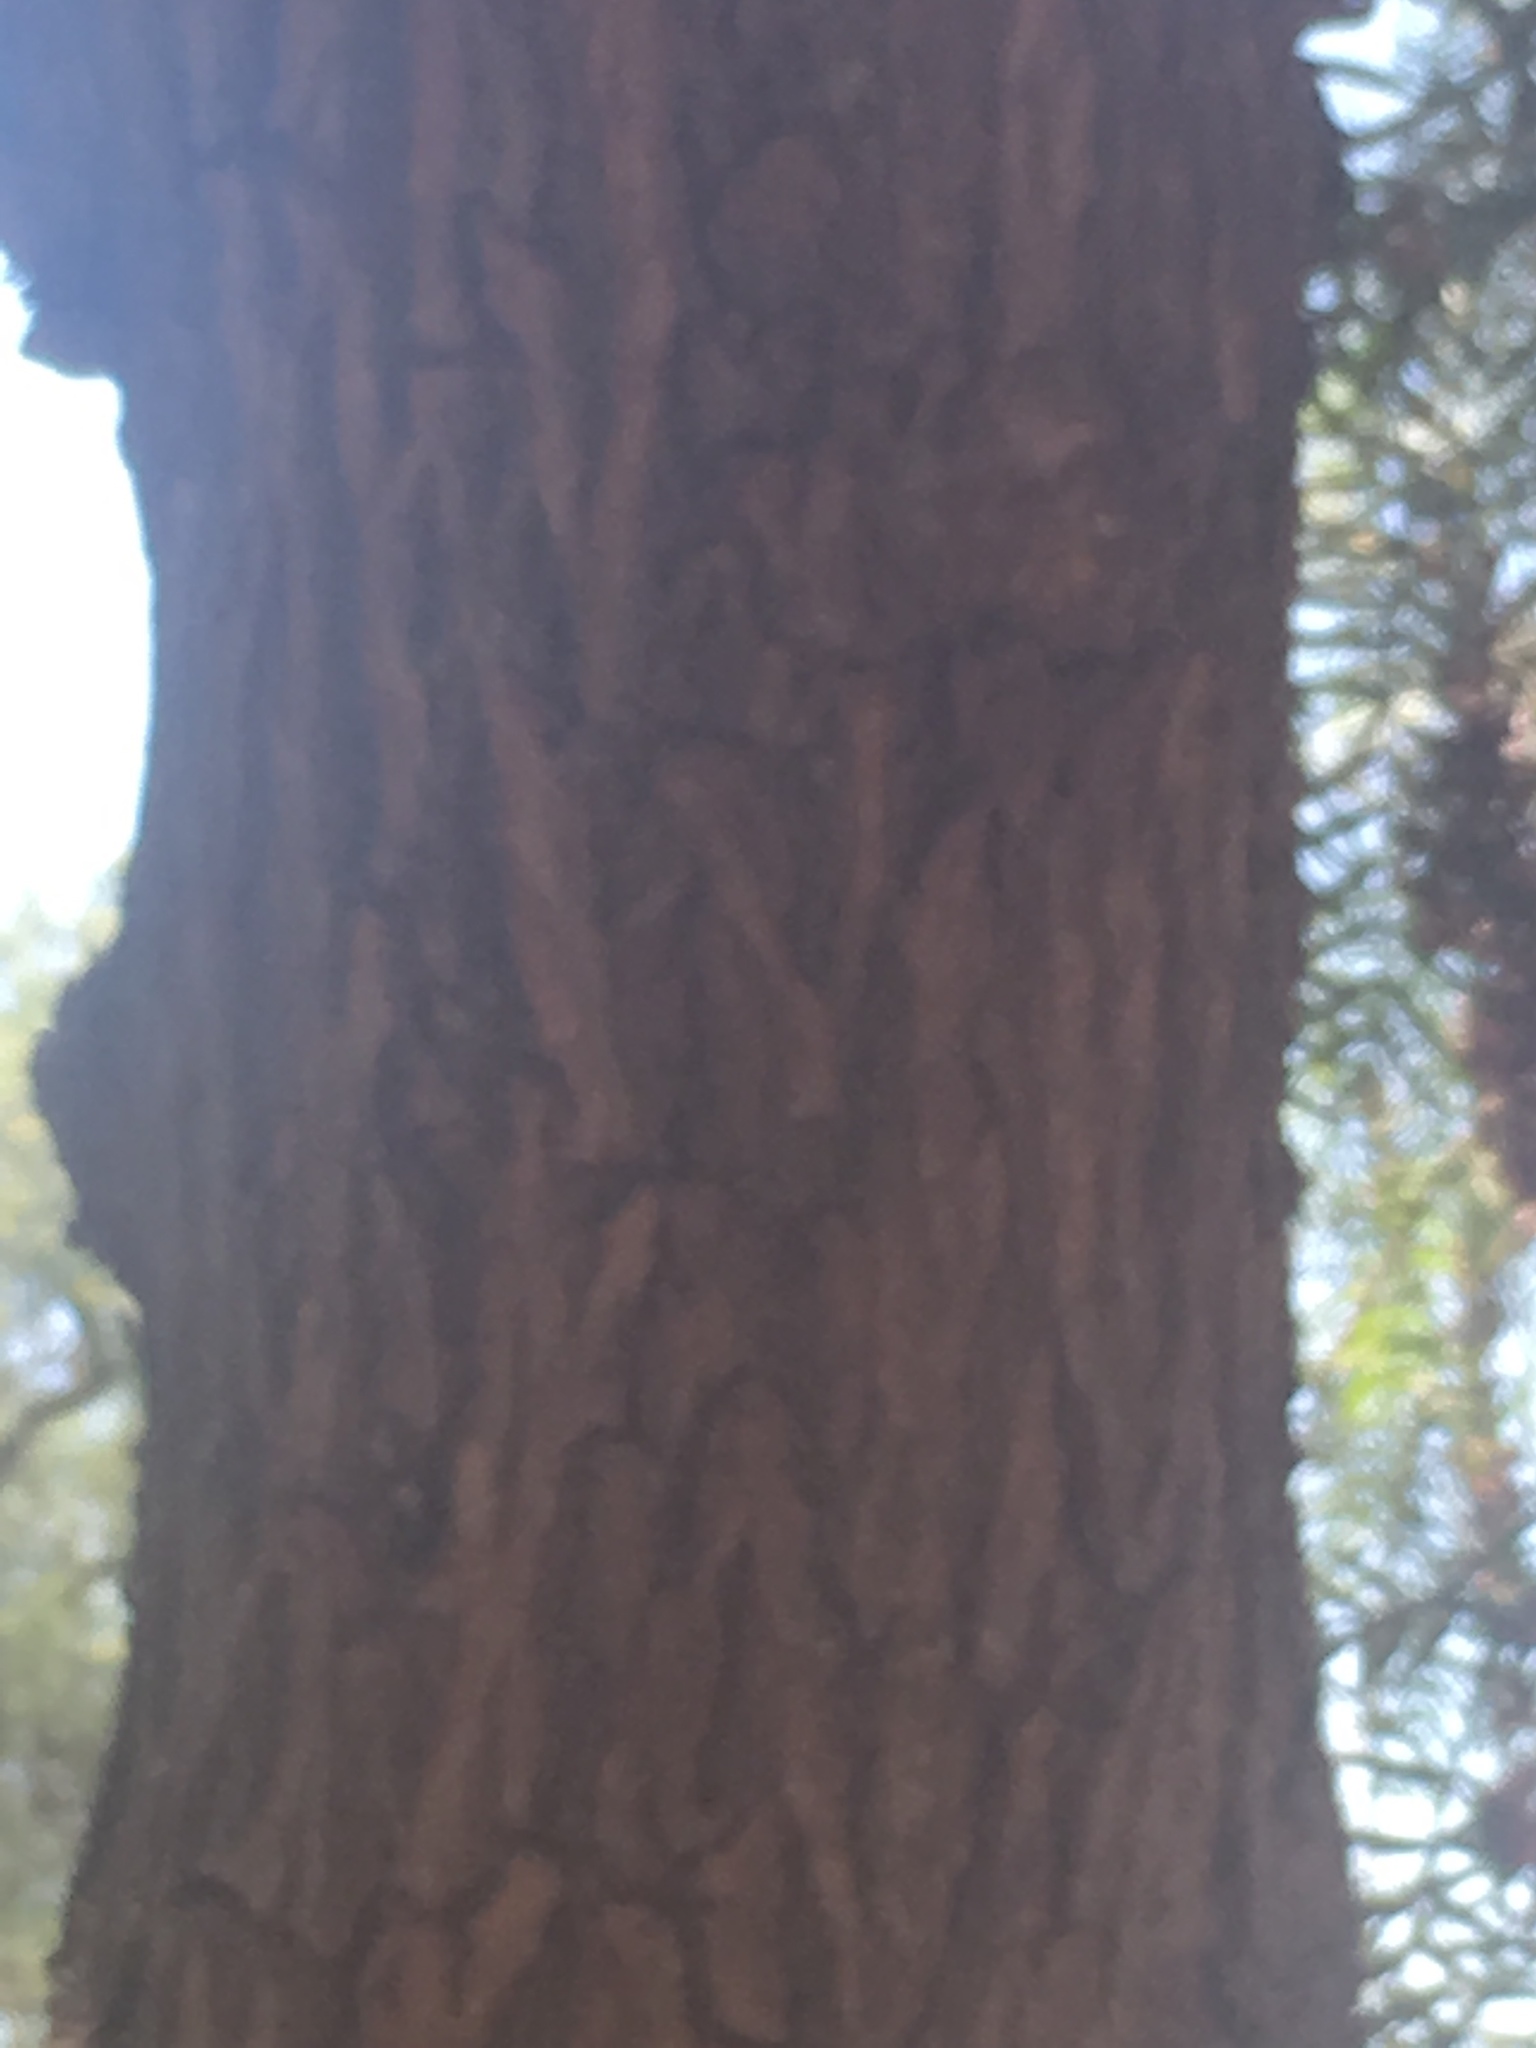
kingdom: Plantae
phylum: Tracheophyta
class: Magnoliopsida
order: Sapindales
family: Anacardiaceae
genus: Schinus
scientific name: Schinus molle
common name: Peruvian peppertree
